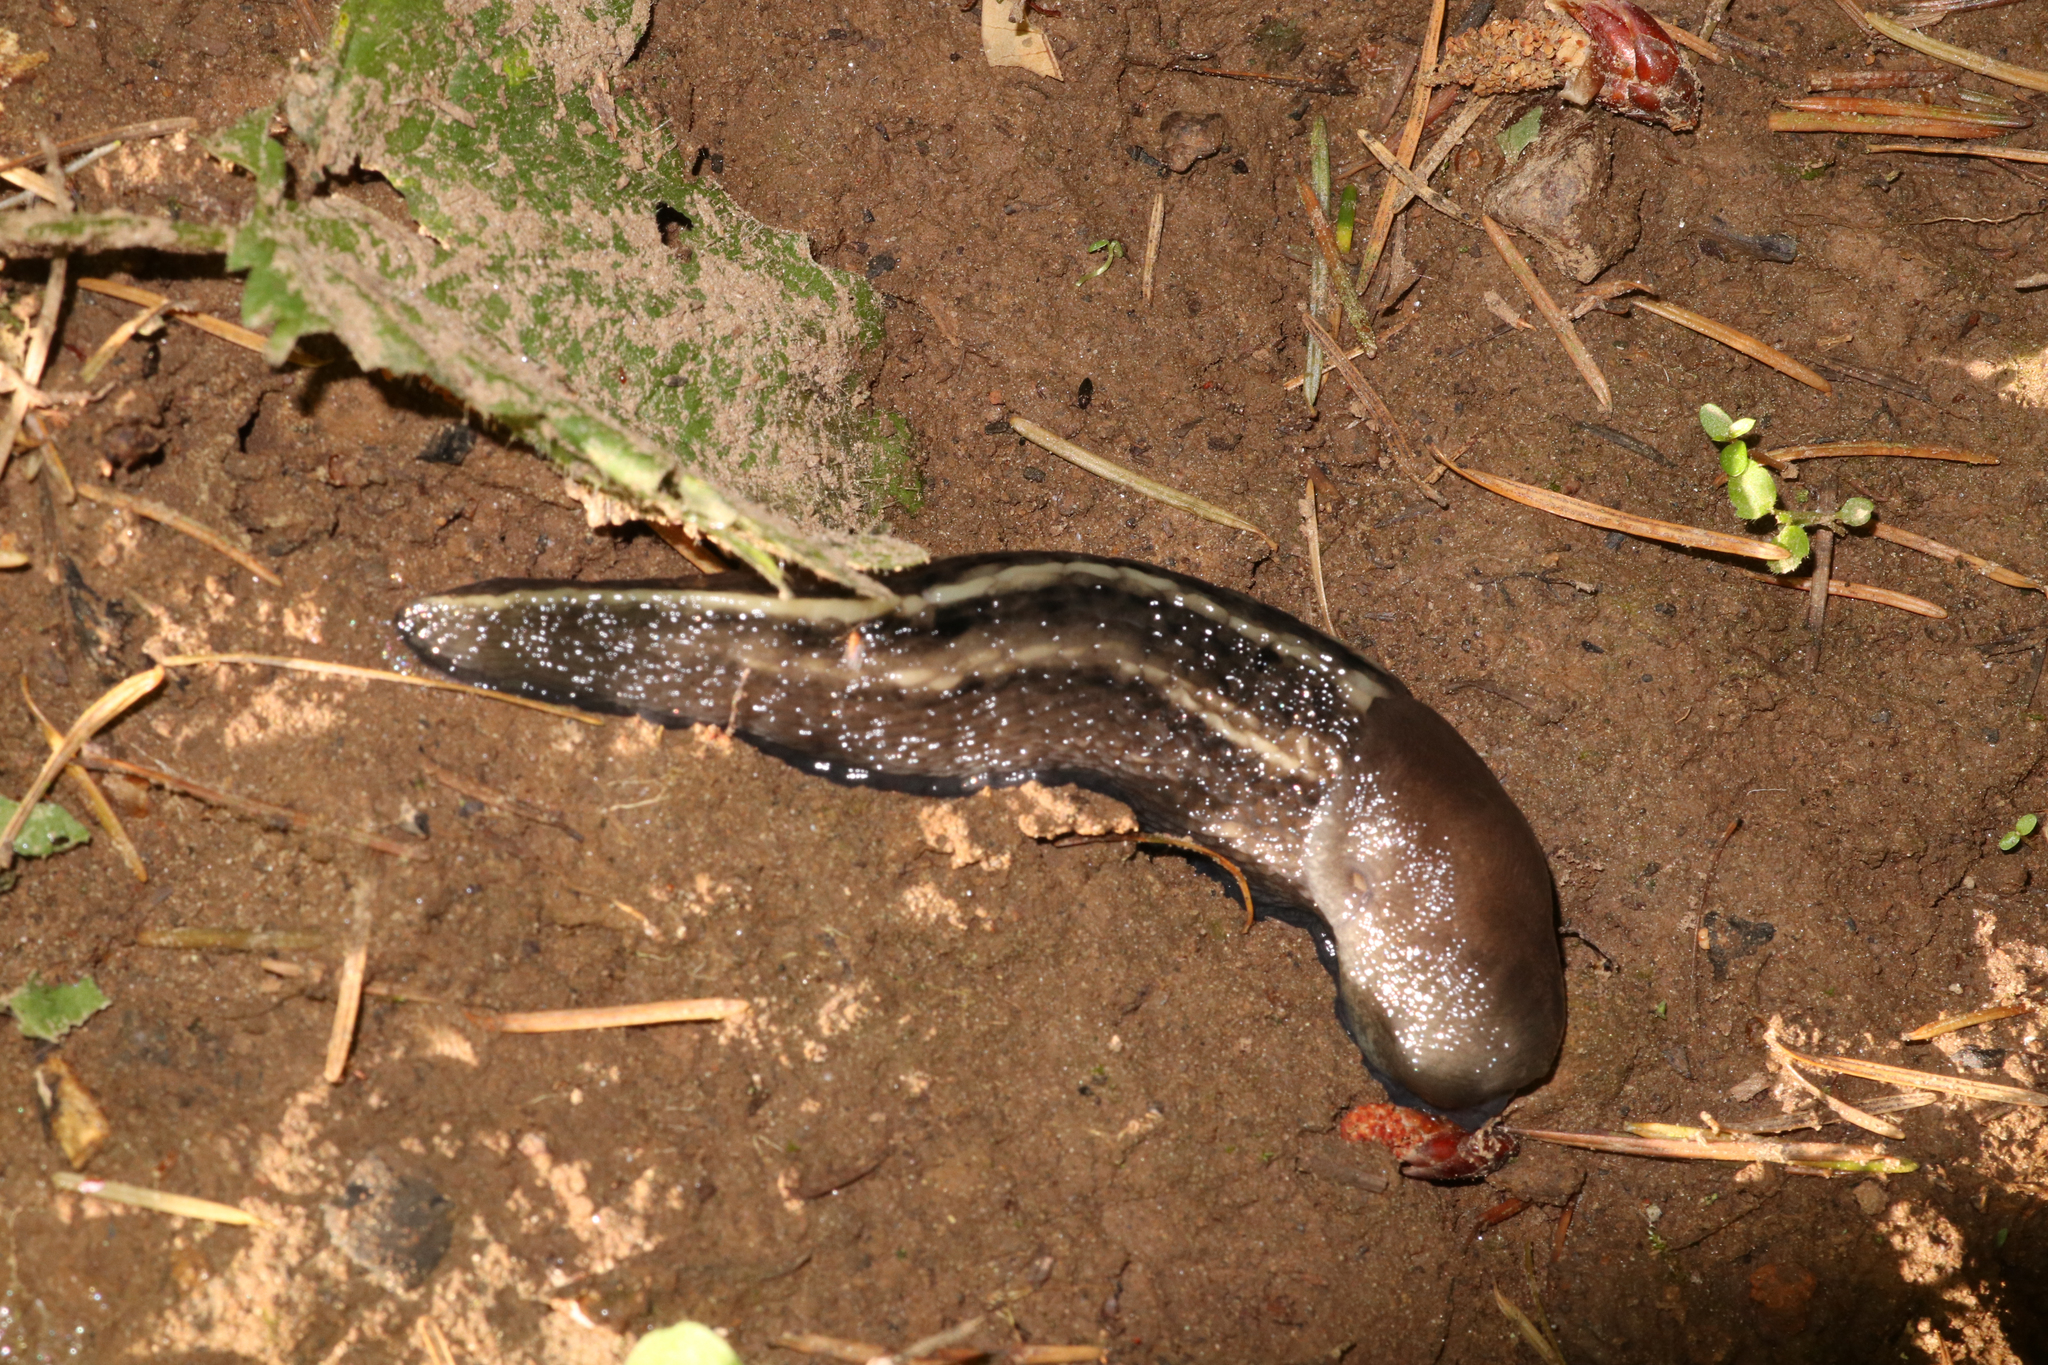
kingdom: Animalia
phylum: Mollusca
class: Gastropoda
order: Stylommatophora
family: Limacidae
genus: Limax
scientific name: Limax cinereoniger
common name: Ash-black slug
